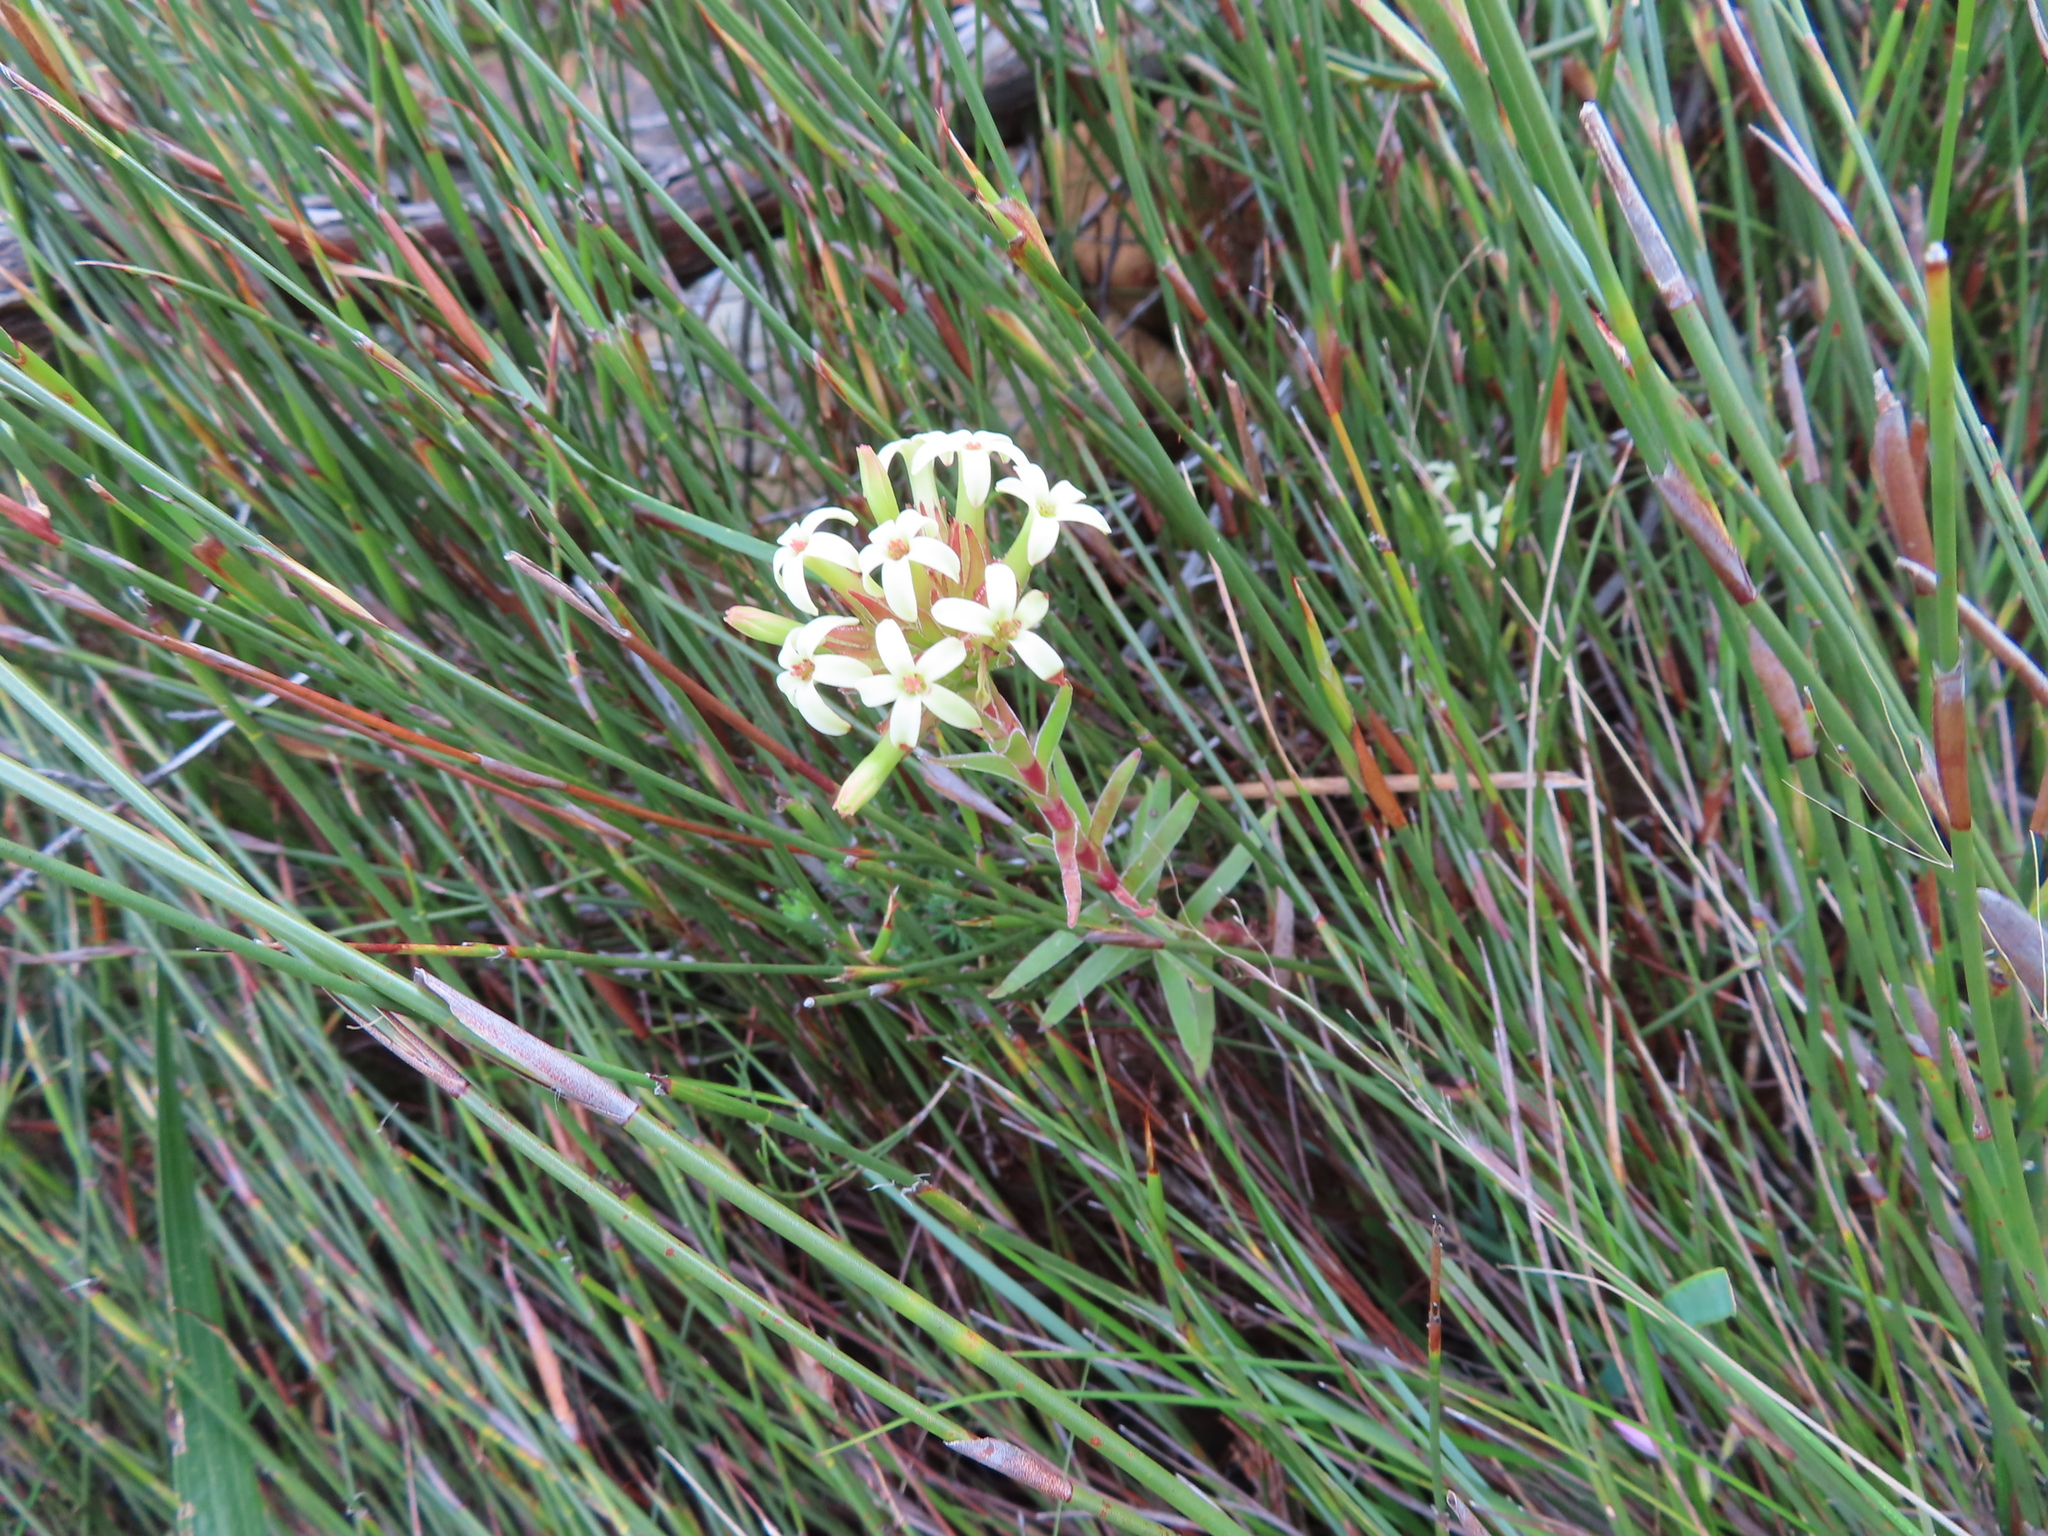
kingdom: Plantae
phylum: Tracheophyta
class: Magnoliopsida
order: Saxifragales
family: Crassulaceae
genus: Crassula
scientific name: Crassula fascicularis
